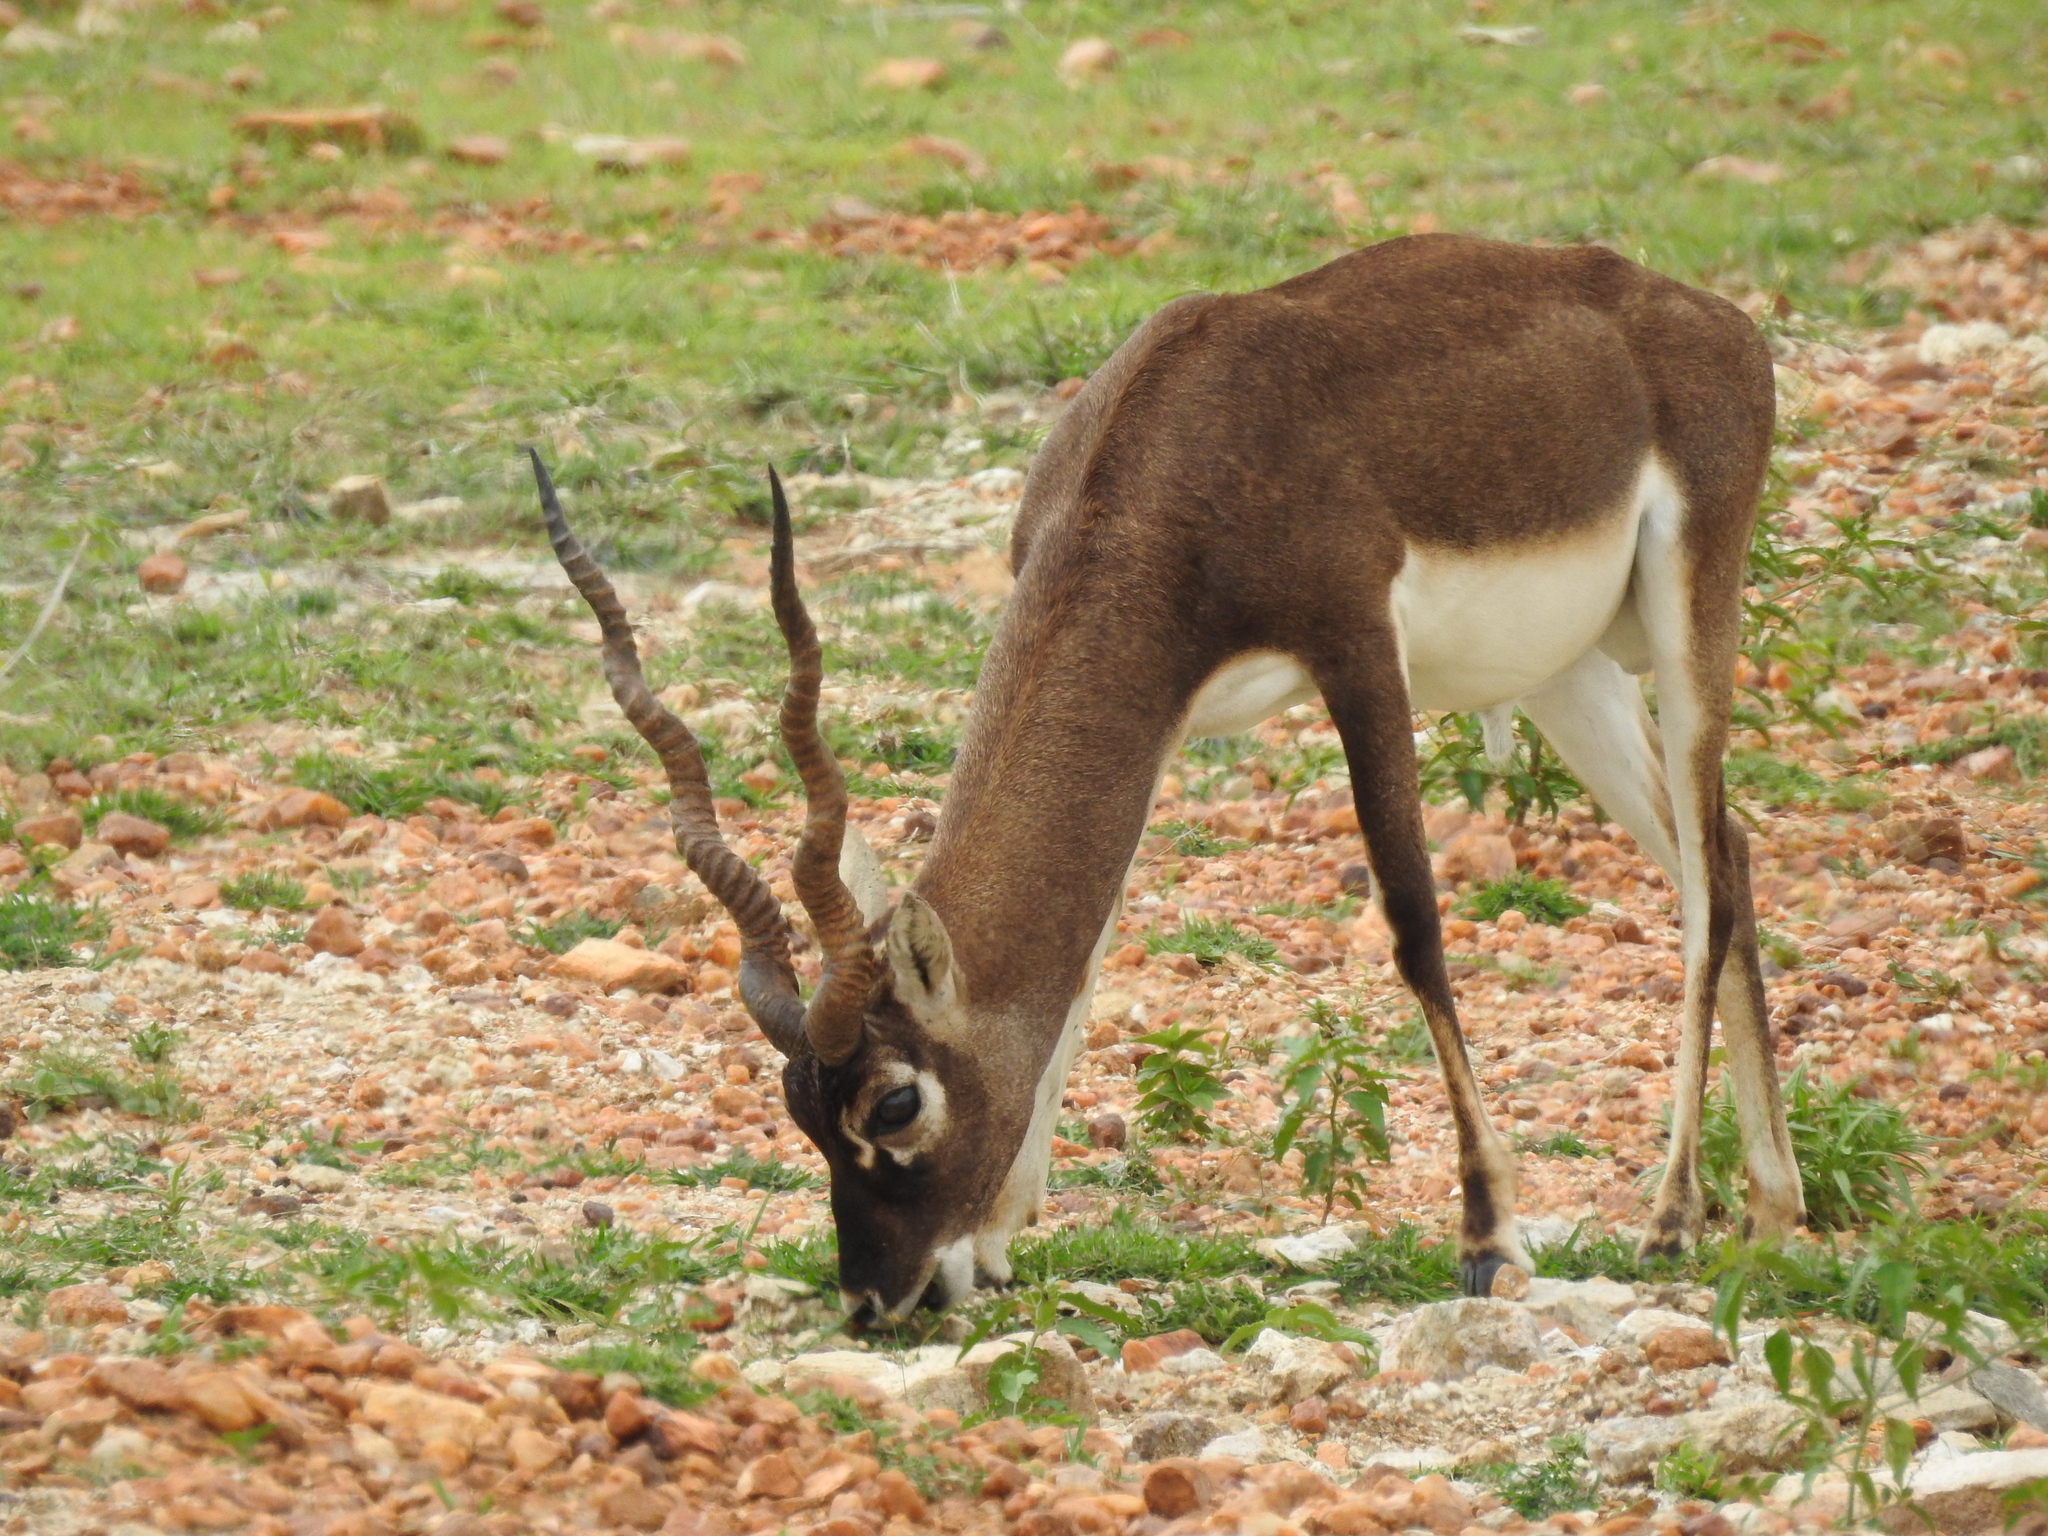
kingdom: Animalia
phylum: Chordata
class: Mammalia
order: Artiodactyla
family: Bovidae
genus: Antilope
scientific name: Antilope cervicapra
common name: Blackbuck
